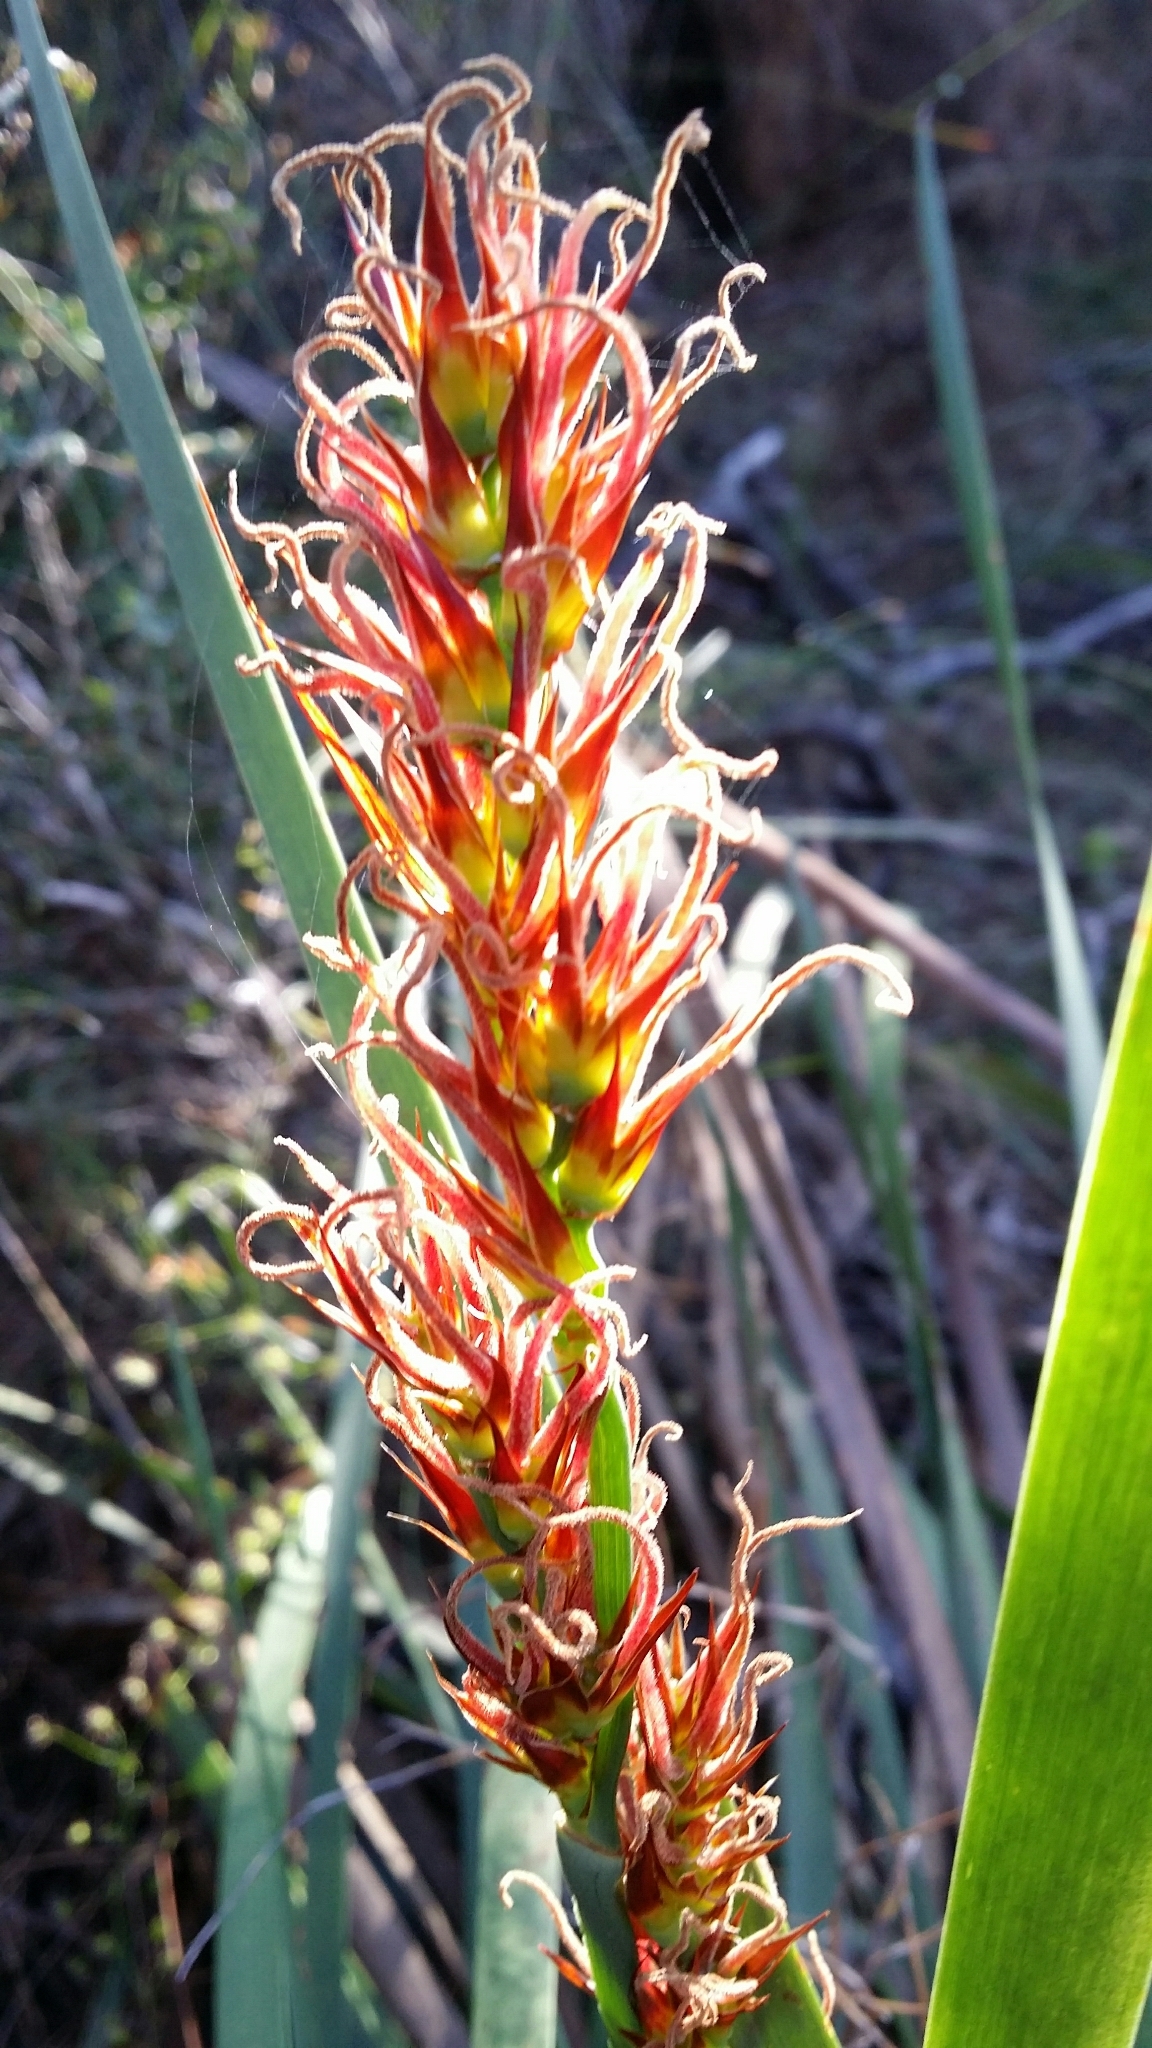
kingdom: Plantae
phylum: Tracheophyta
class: Liliopsida
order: Poales
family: Restionaceae
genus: Anarthria
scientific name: Anarthria scabra
